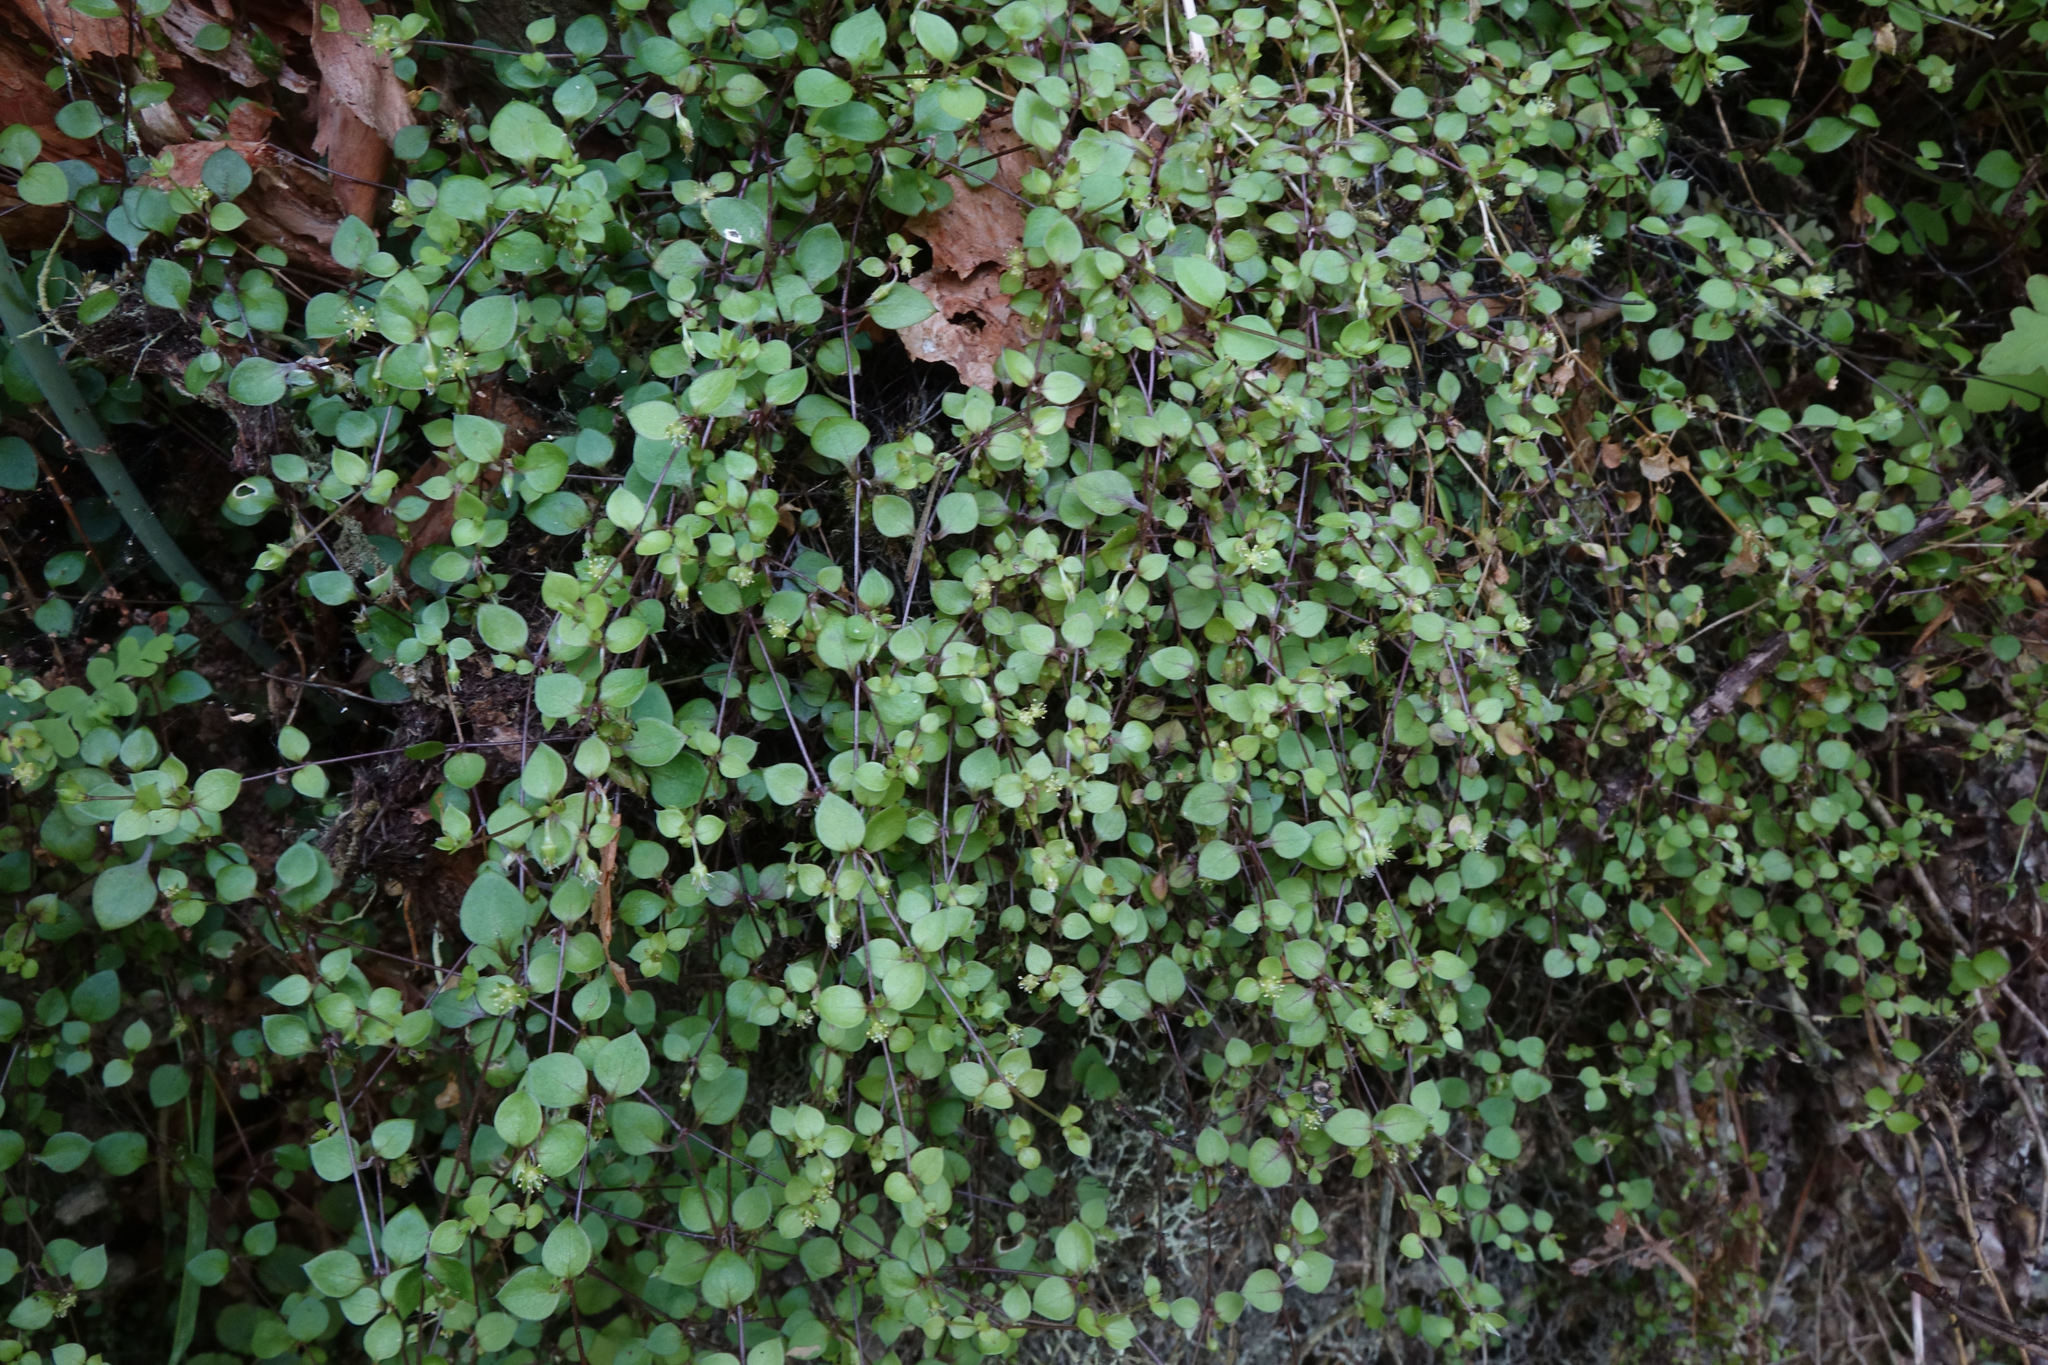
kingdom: Plantae
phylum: Tracheophyta
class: Magnoliopsida
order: Caryophyllales
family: Caryophyllaceae
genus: Stellaria
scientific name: Stellaria parviflora
